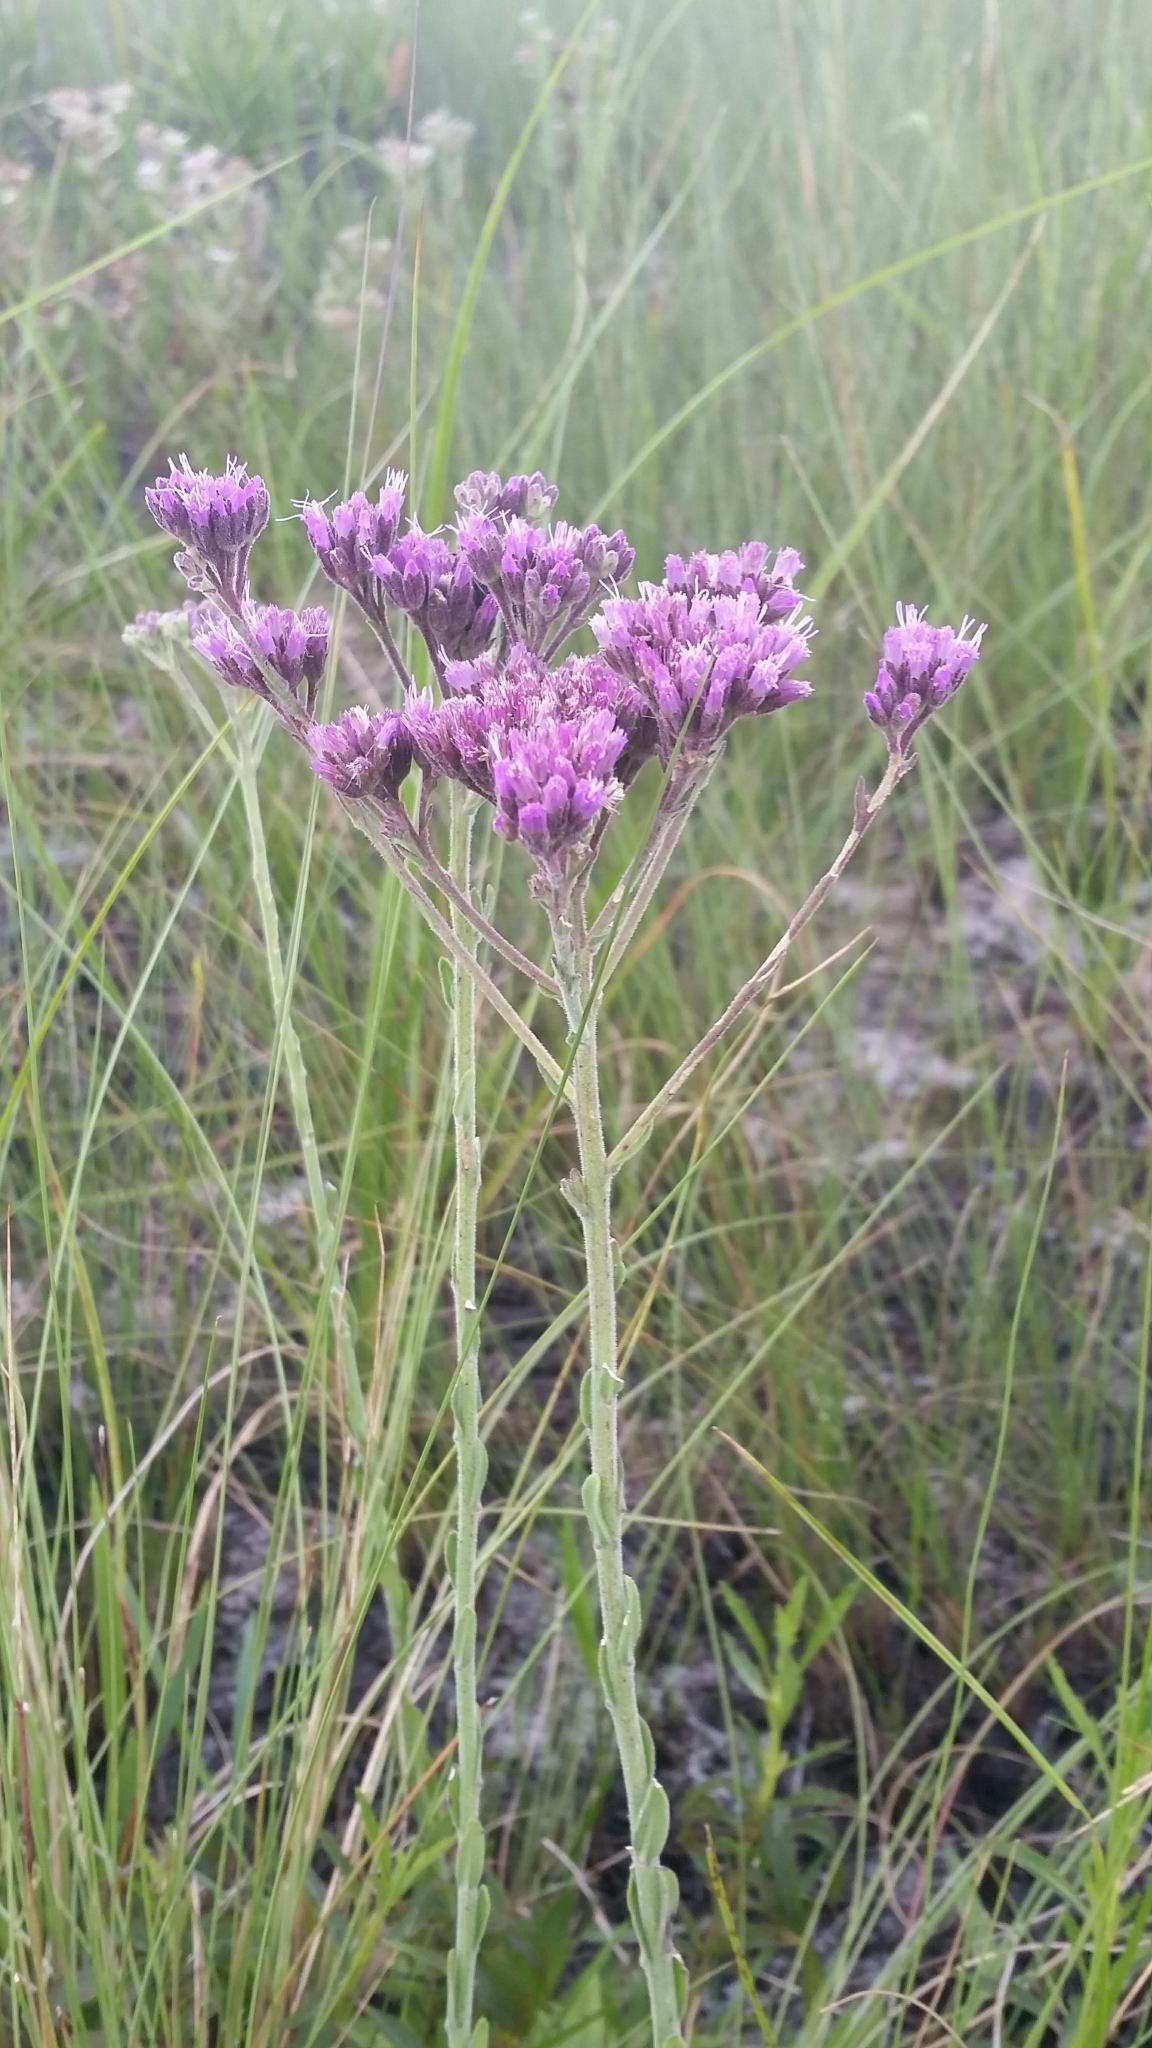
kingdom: Plantae
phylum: Tracheophyta
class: Magnoliopsida
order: Asterales
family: Asteraceae
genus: Carphephorus
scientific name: Carphephorus carnosus
